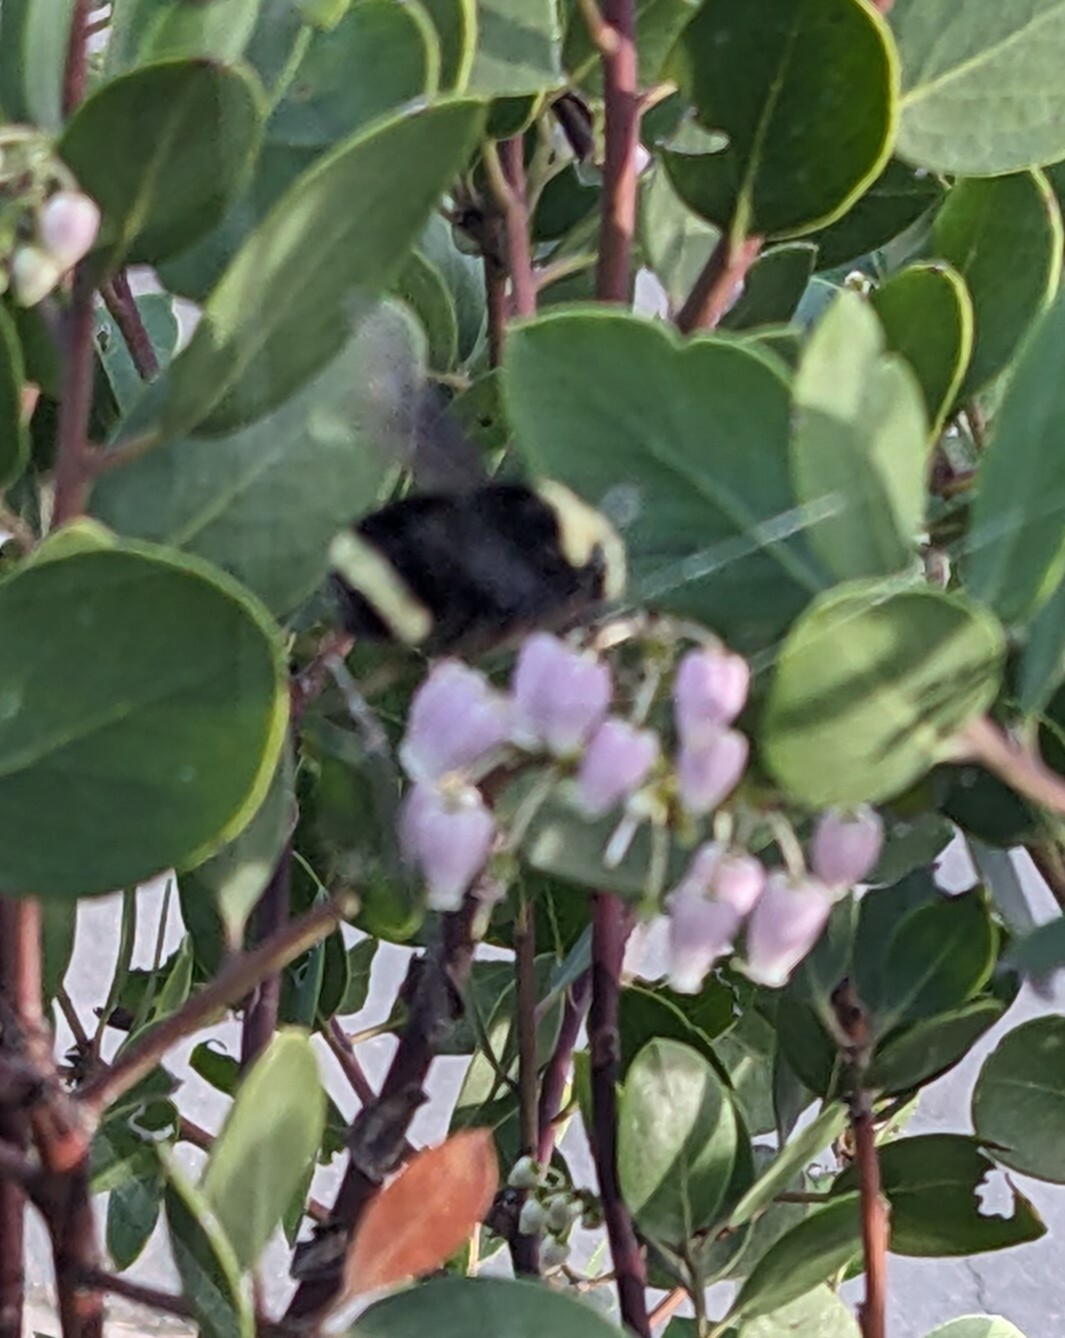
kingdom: Animalia
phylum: Arthropoda
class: Insecta
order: Hymenoptera
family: Apidae
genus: Bombus
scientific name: Bombus vosnesenskii
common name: Vosnesensky bumble bee
